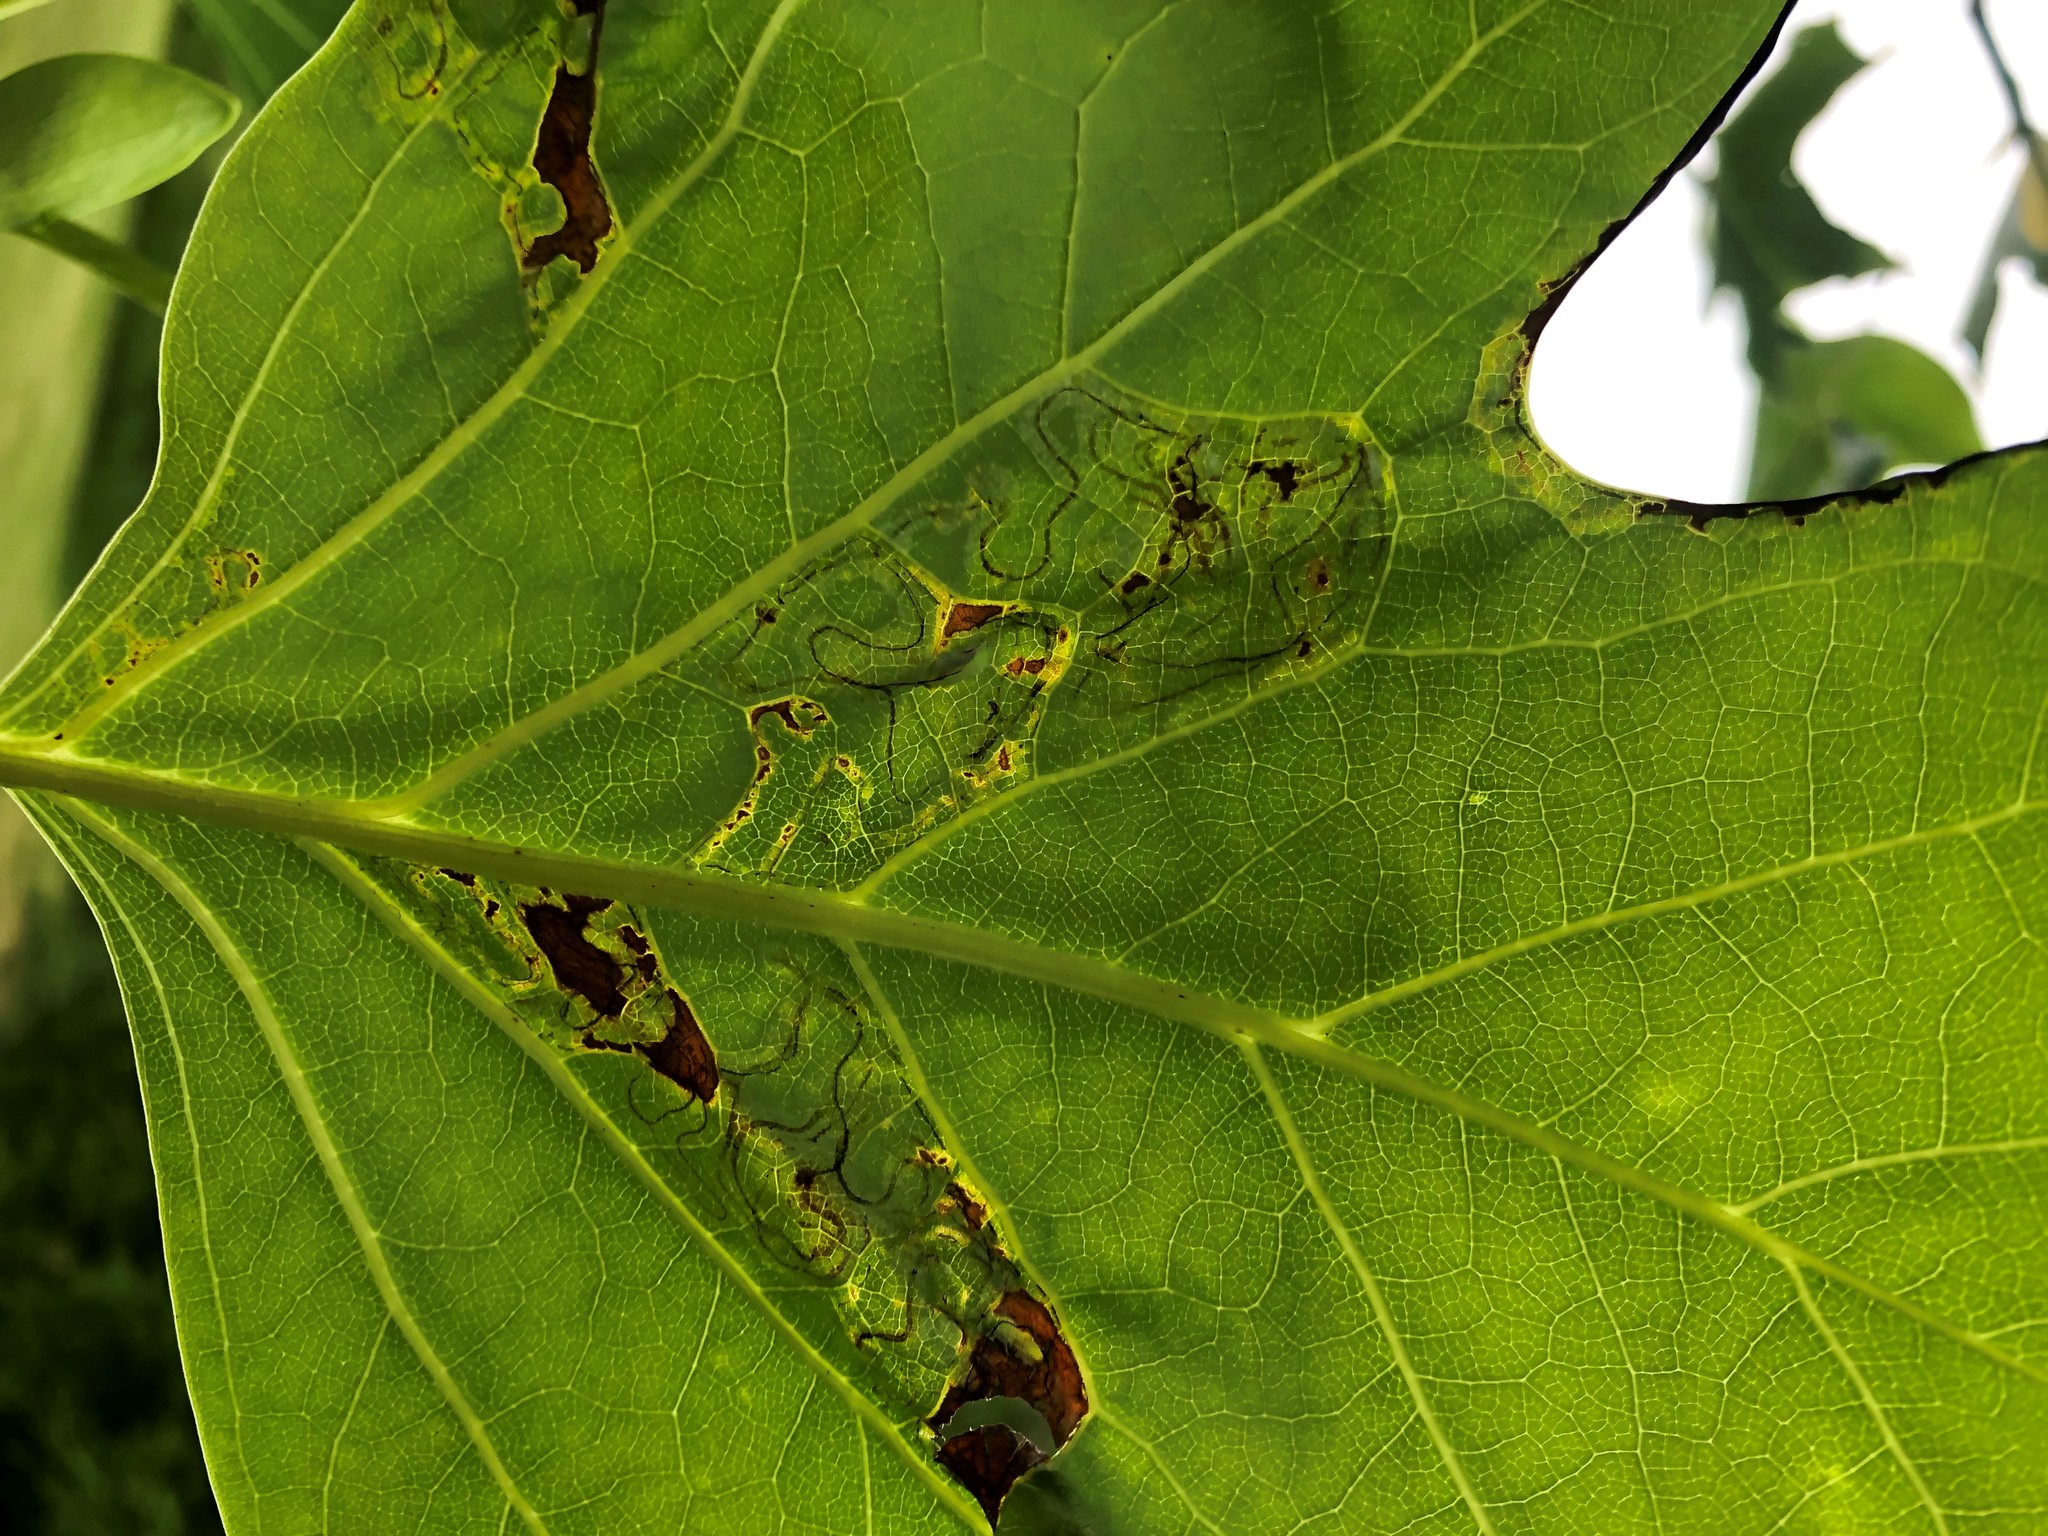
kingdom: Animalia
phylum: Arthropoda
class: Insecta
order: Lepidoptera
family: Gracillariidae
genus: Phyllocnistis
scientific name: Phyllocnistis liriodendronella
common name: Tulip tree leaf miner
